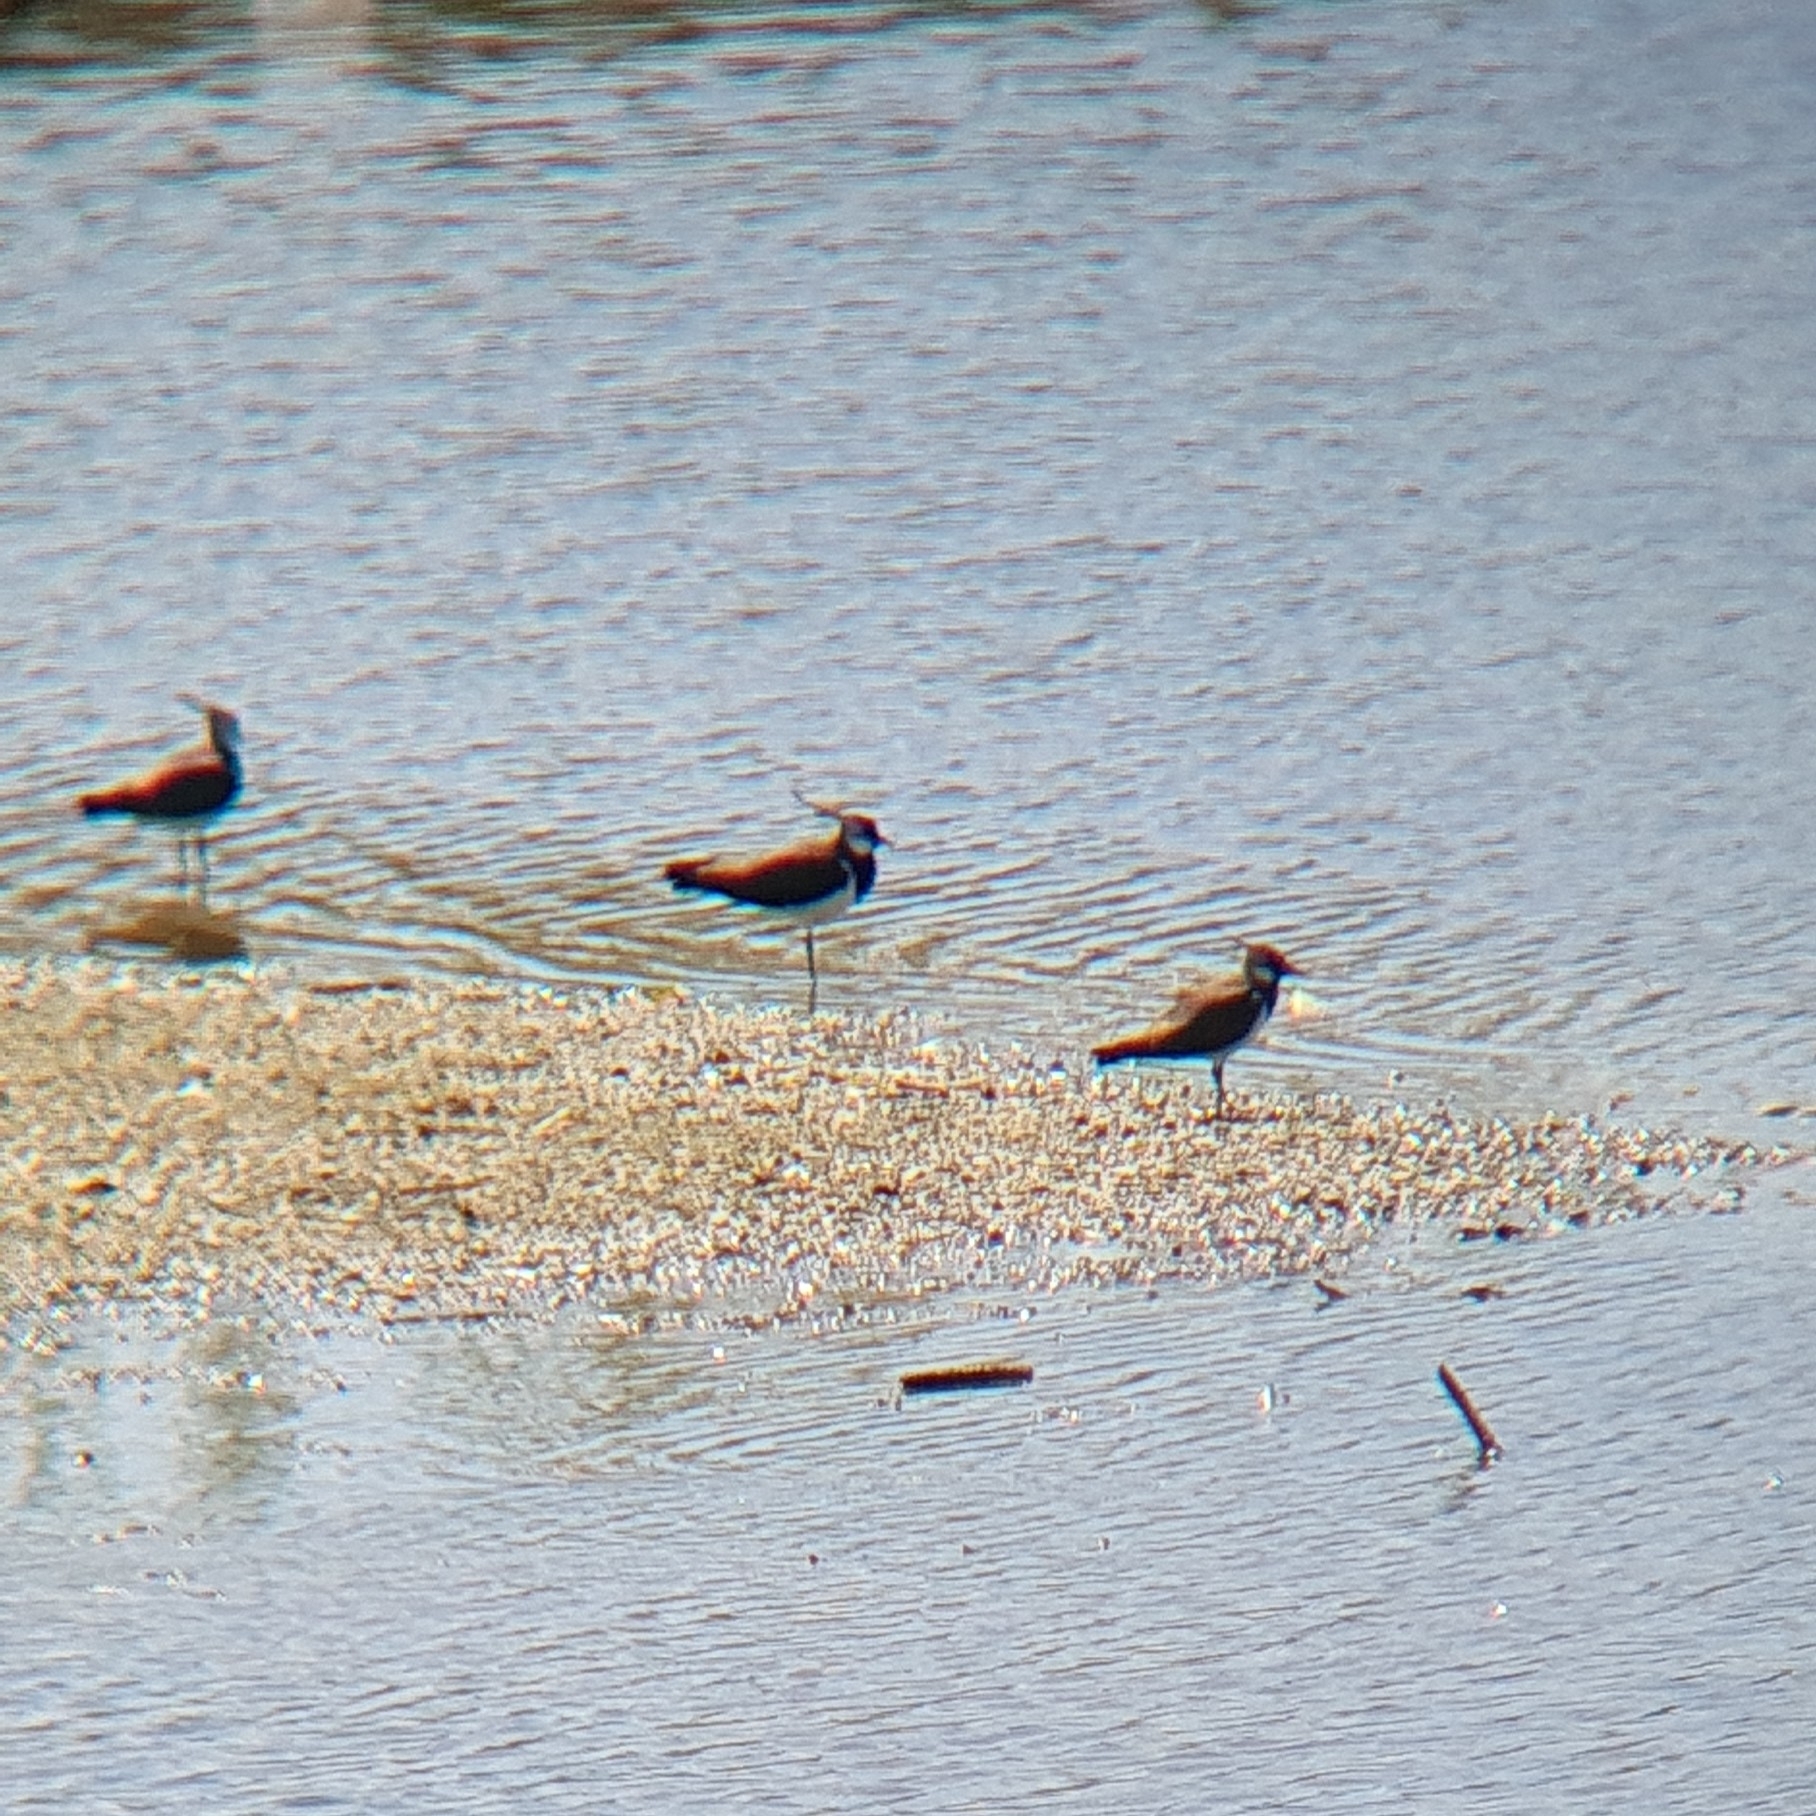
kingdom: Animalia
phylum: Chordata
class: Aves
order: Charadriiformes
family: Charadriidae
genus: Vanellus
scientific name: Vanellus vanellus
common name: Northern lapwing
